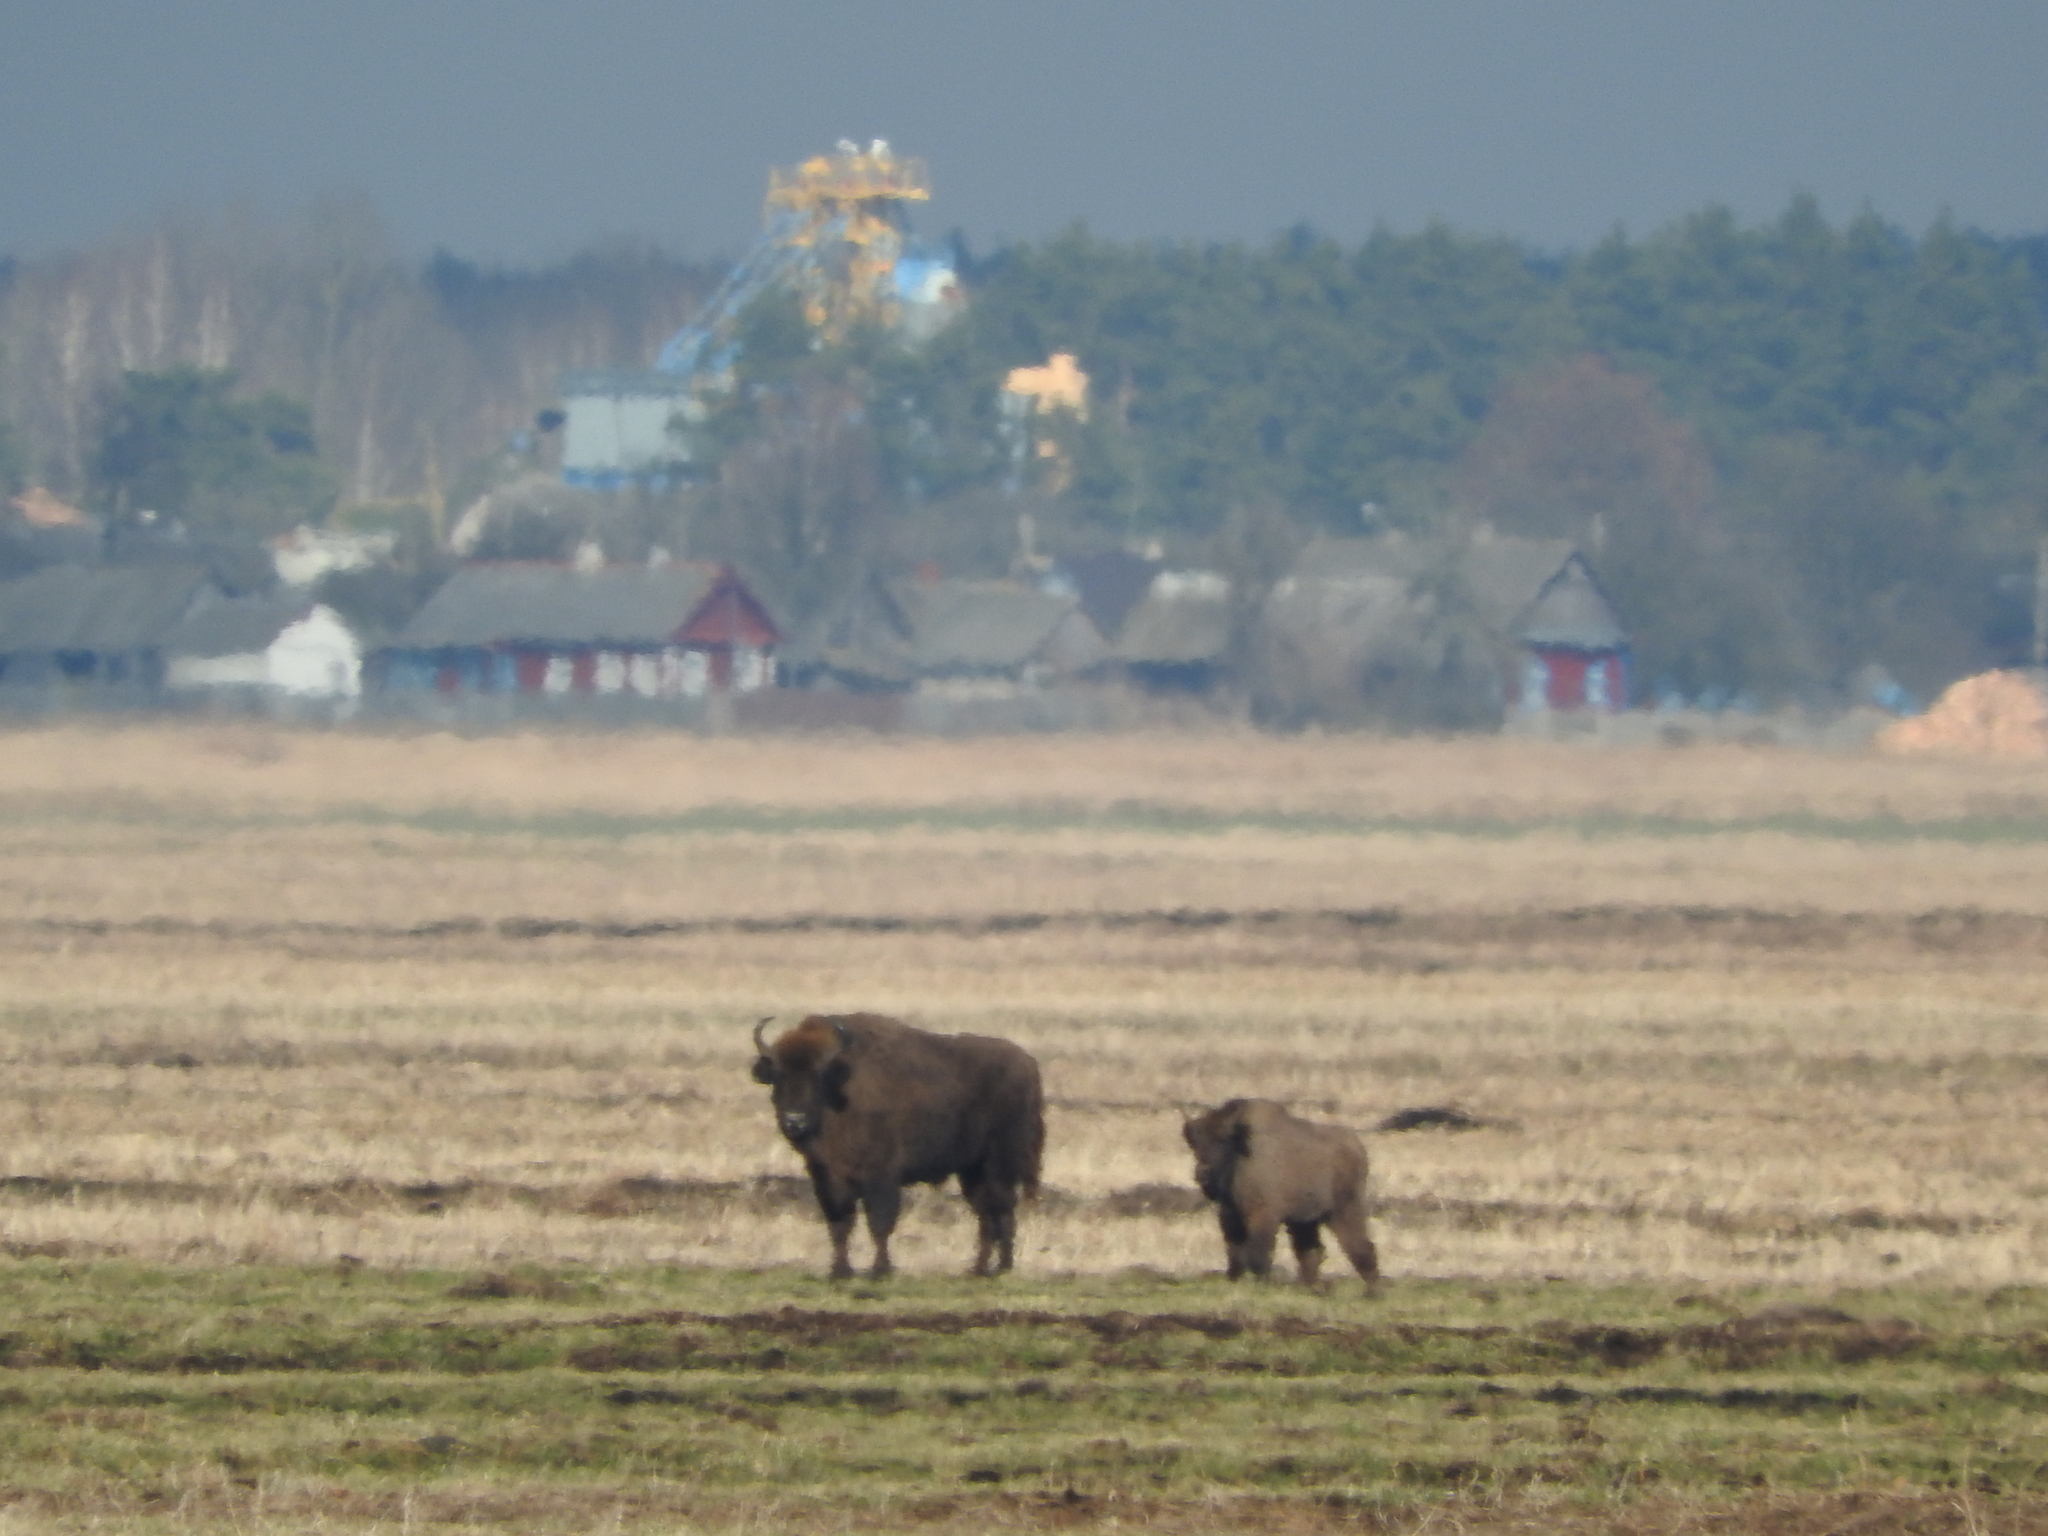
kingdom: Animalia
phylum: Chordata
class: Mammalia
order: Artiodactyla
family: Bovidae
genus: Bison
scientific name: Bison bonasus
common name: European bison
